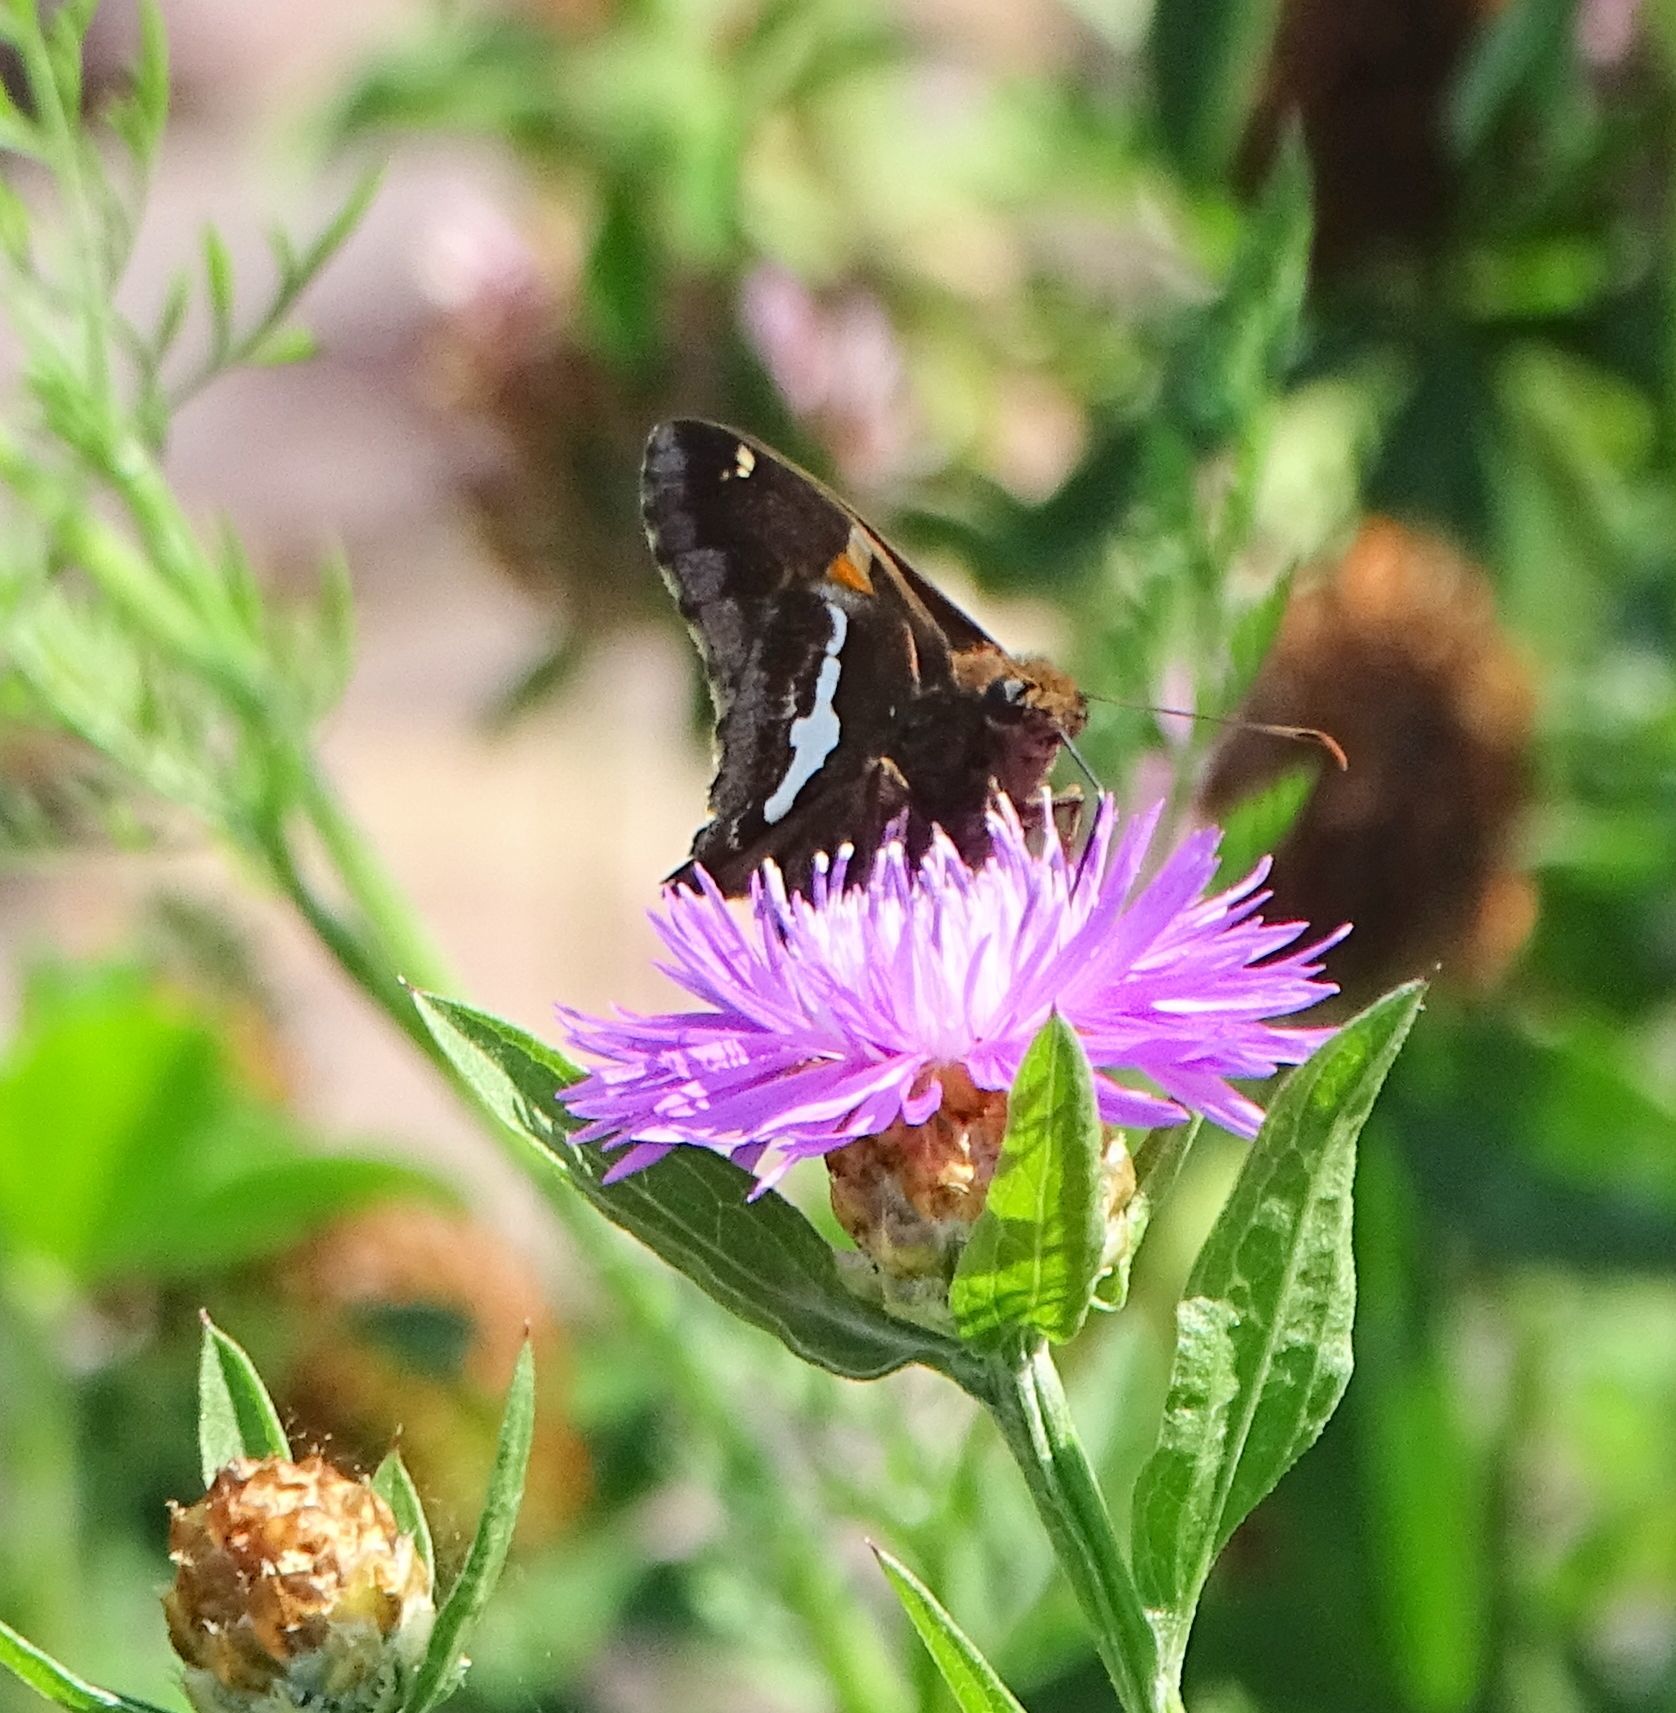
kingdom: Animalia
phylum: Arthropoda
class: Insecta
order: Lepidoptera
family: Hesperiidae
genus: Epargyreus
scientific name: Epargyreus clarus
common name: Silver-spotted skipper
